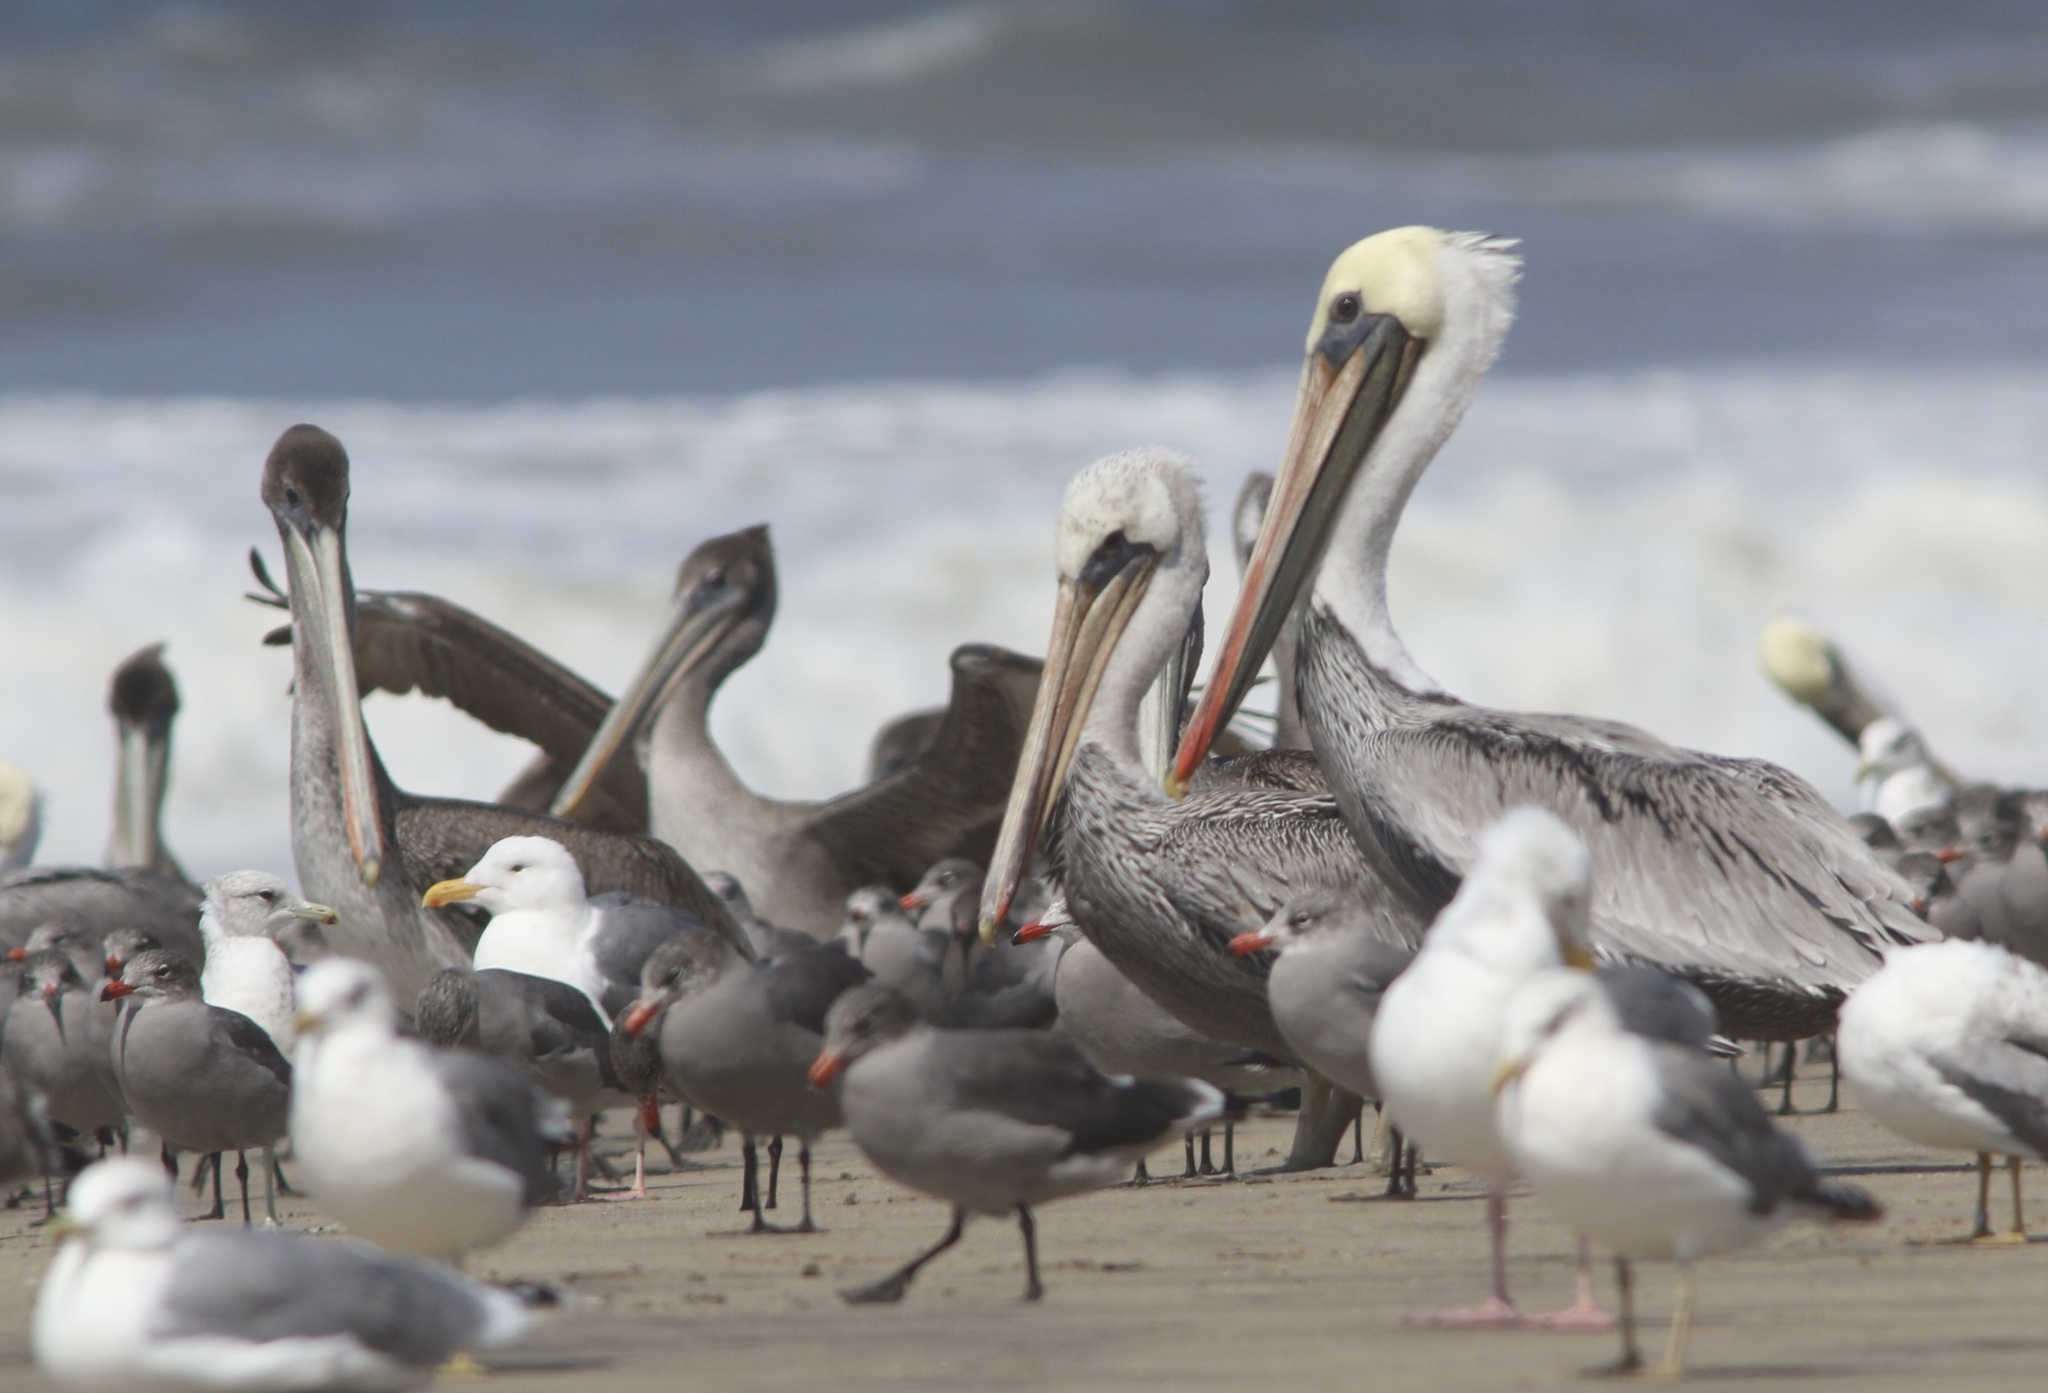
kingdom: Animalia
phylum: Chordata
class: Aves
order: Pelecaniformes
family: Pelecanidae
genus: Pelecanus
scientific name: Pelecanus occidentalis
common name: Brown pelican
